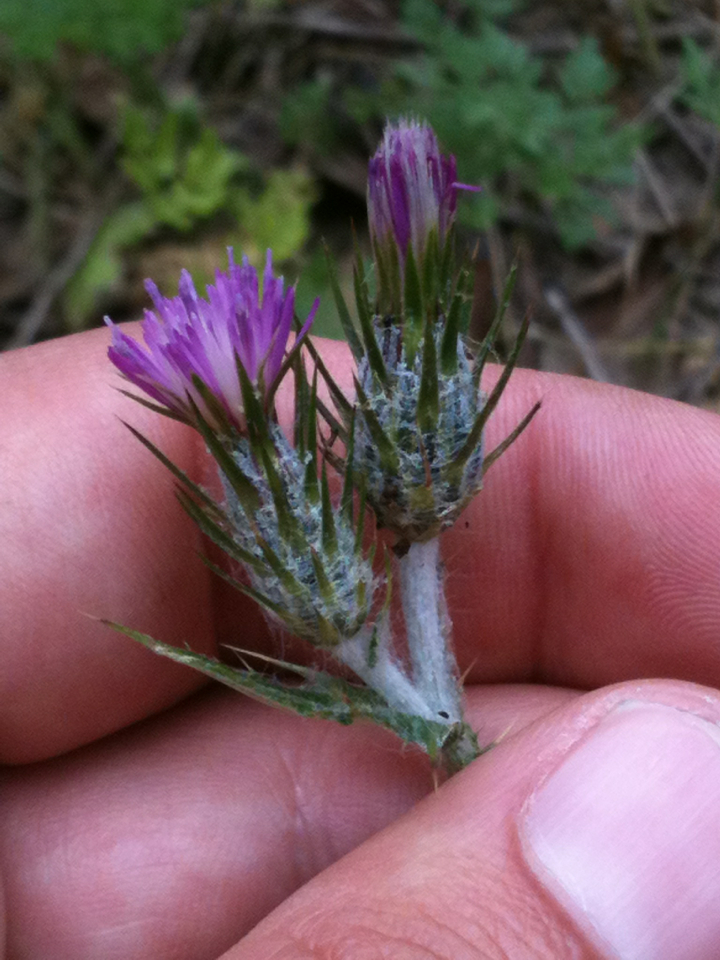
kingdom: Plantae
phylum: Tracheophyta
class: Magnoliopsida
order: Asterales
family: Asteraceae
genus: Carduus
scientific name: Carduus pycnocephalus
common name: Plymouth thistle
